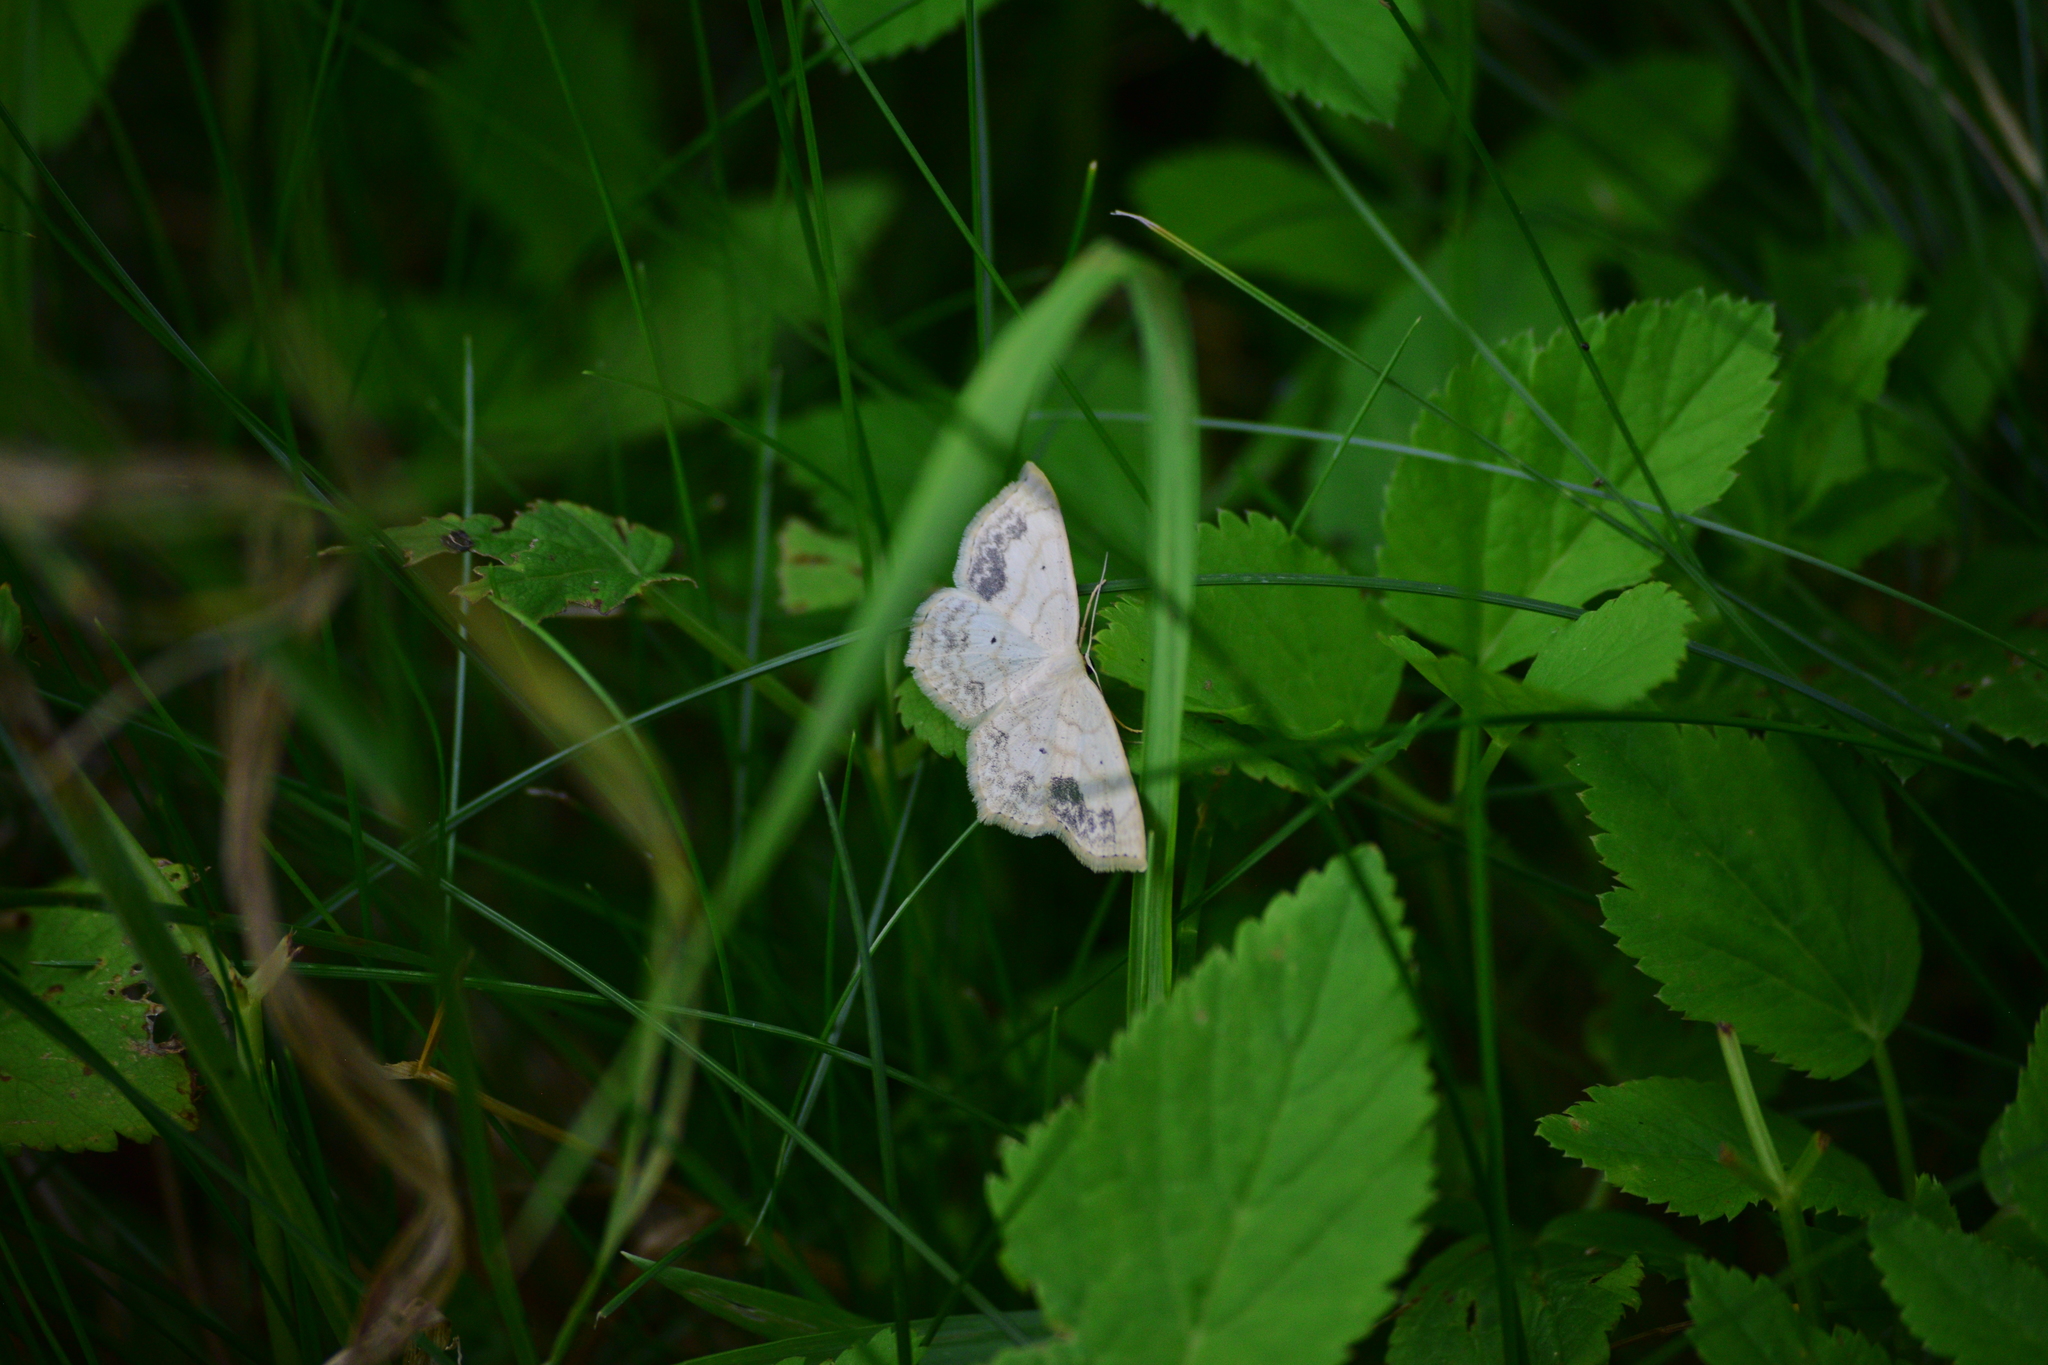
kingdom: Animalia
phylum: Arthropoda
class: Insecta
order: Lepidoptera
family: Geometridae
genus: Scopula
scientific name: Scopula limboundata
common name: Large lace border
